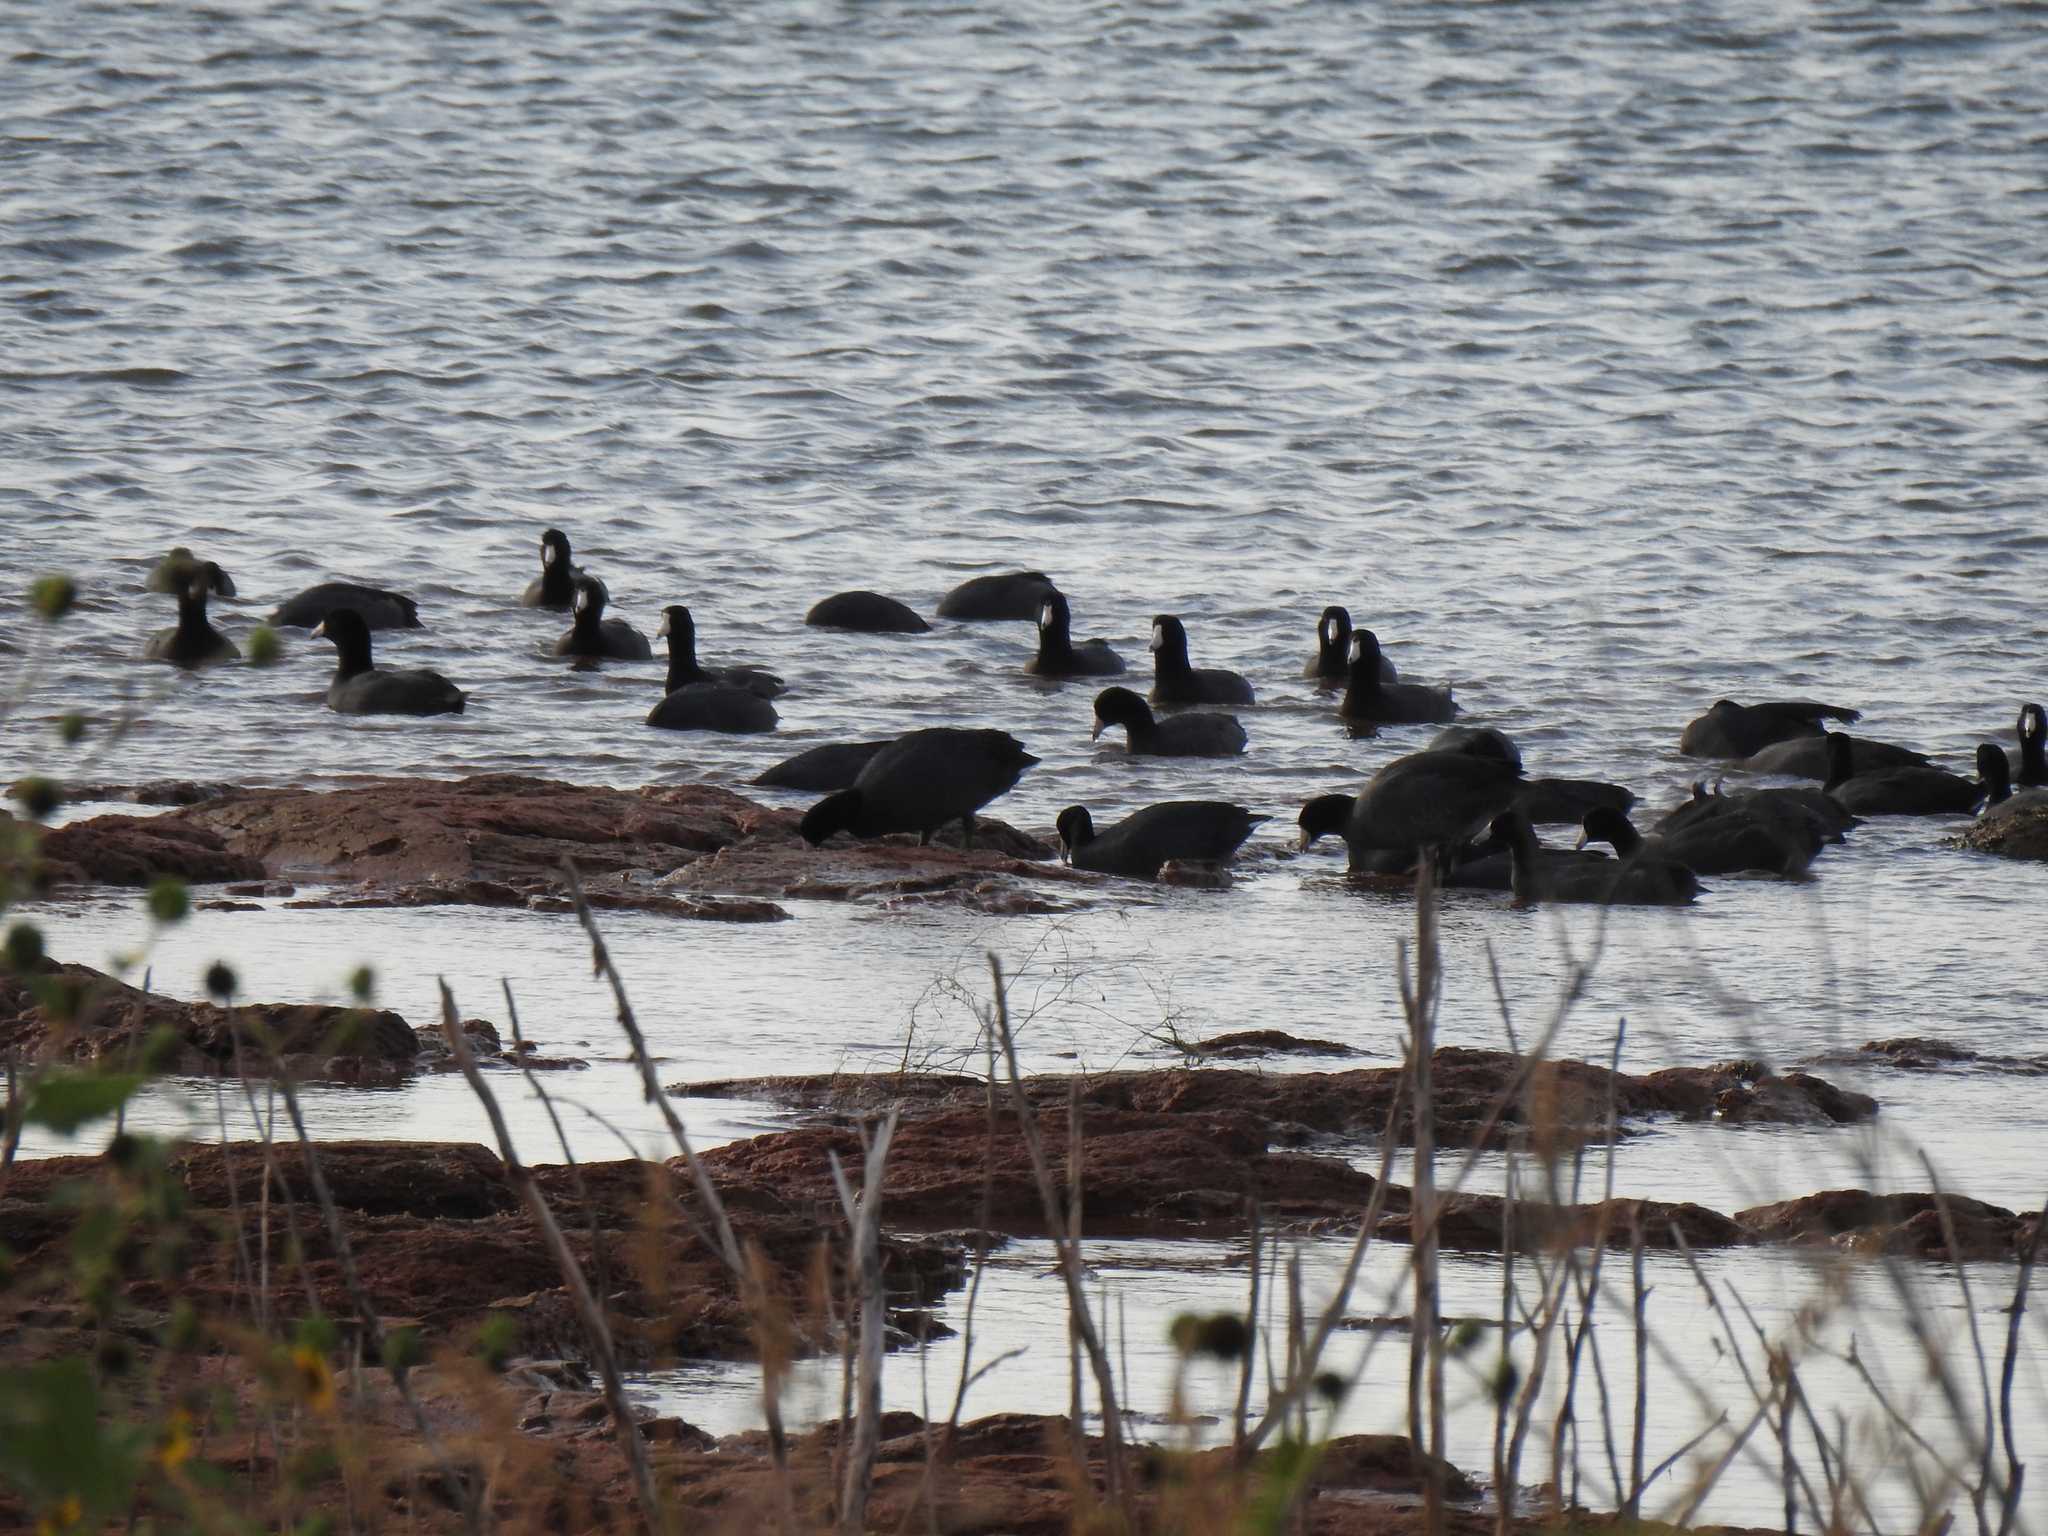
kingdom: Animalia
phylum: Chordata
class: Aves
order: Gruiformes
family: Rallidae
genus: Fulica
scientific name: Fulica americana
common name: American coot
